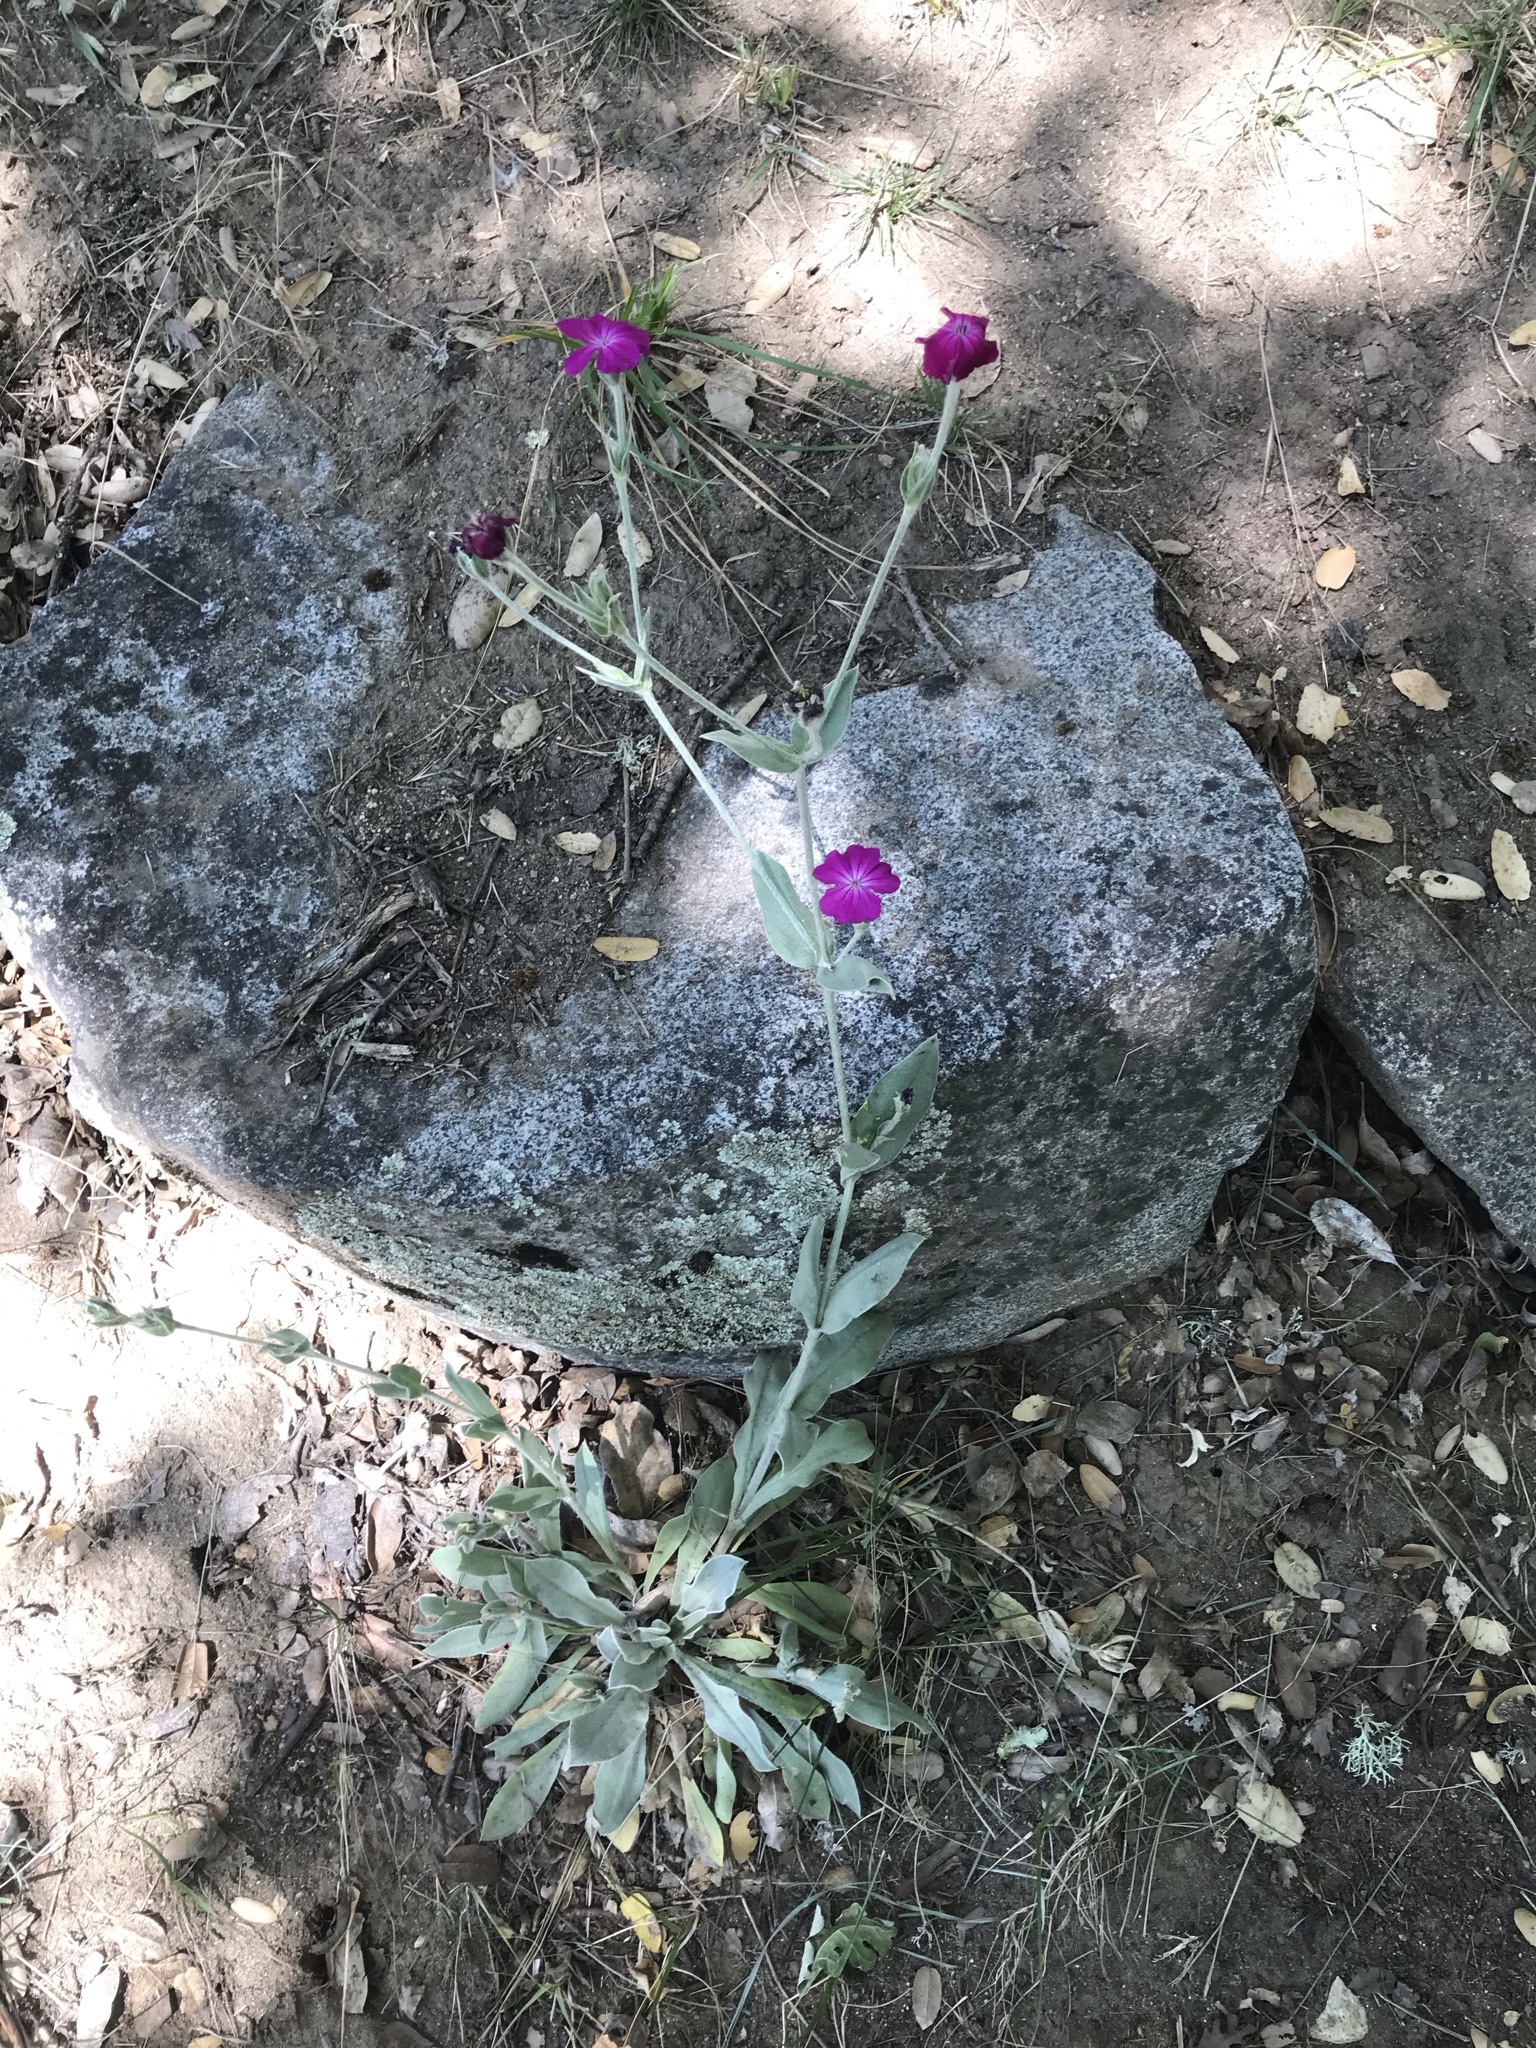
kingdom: Plantae
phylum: Tracheophyta
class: Magnoliopsida
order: Caryophyllales
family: Caryophyllaceae
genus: Silene
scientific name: Silene coronaria
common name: Rose campion
